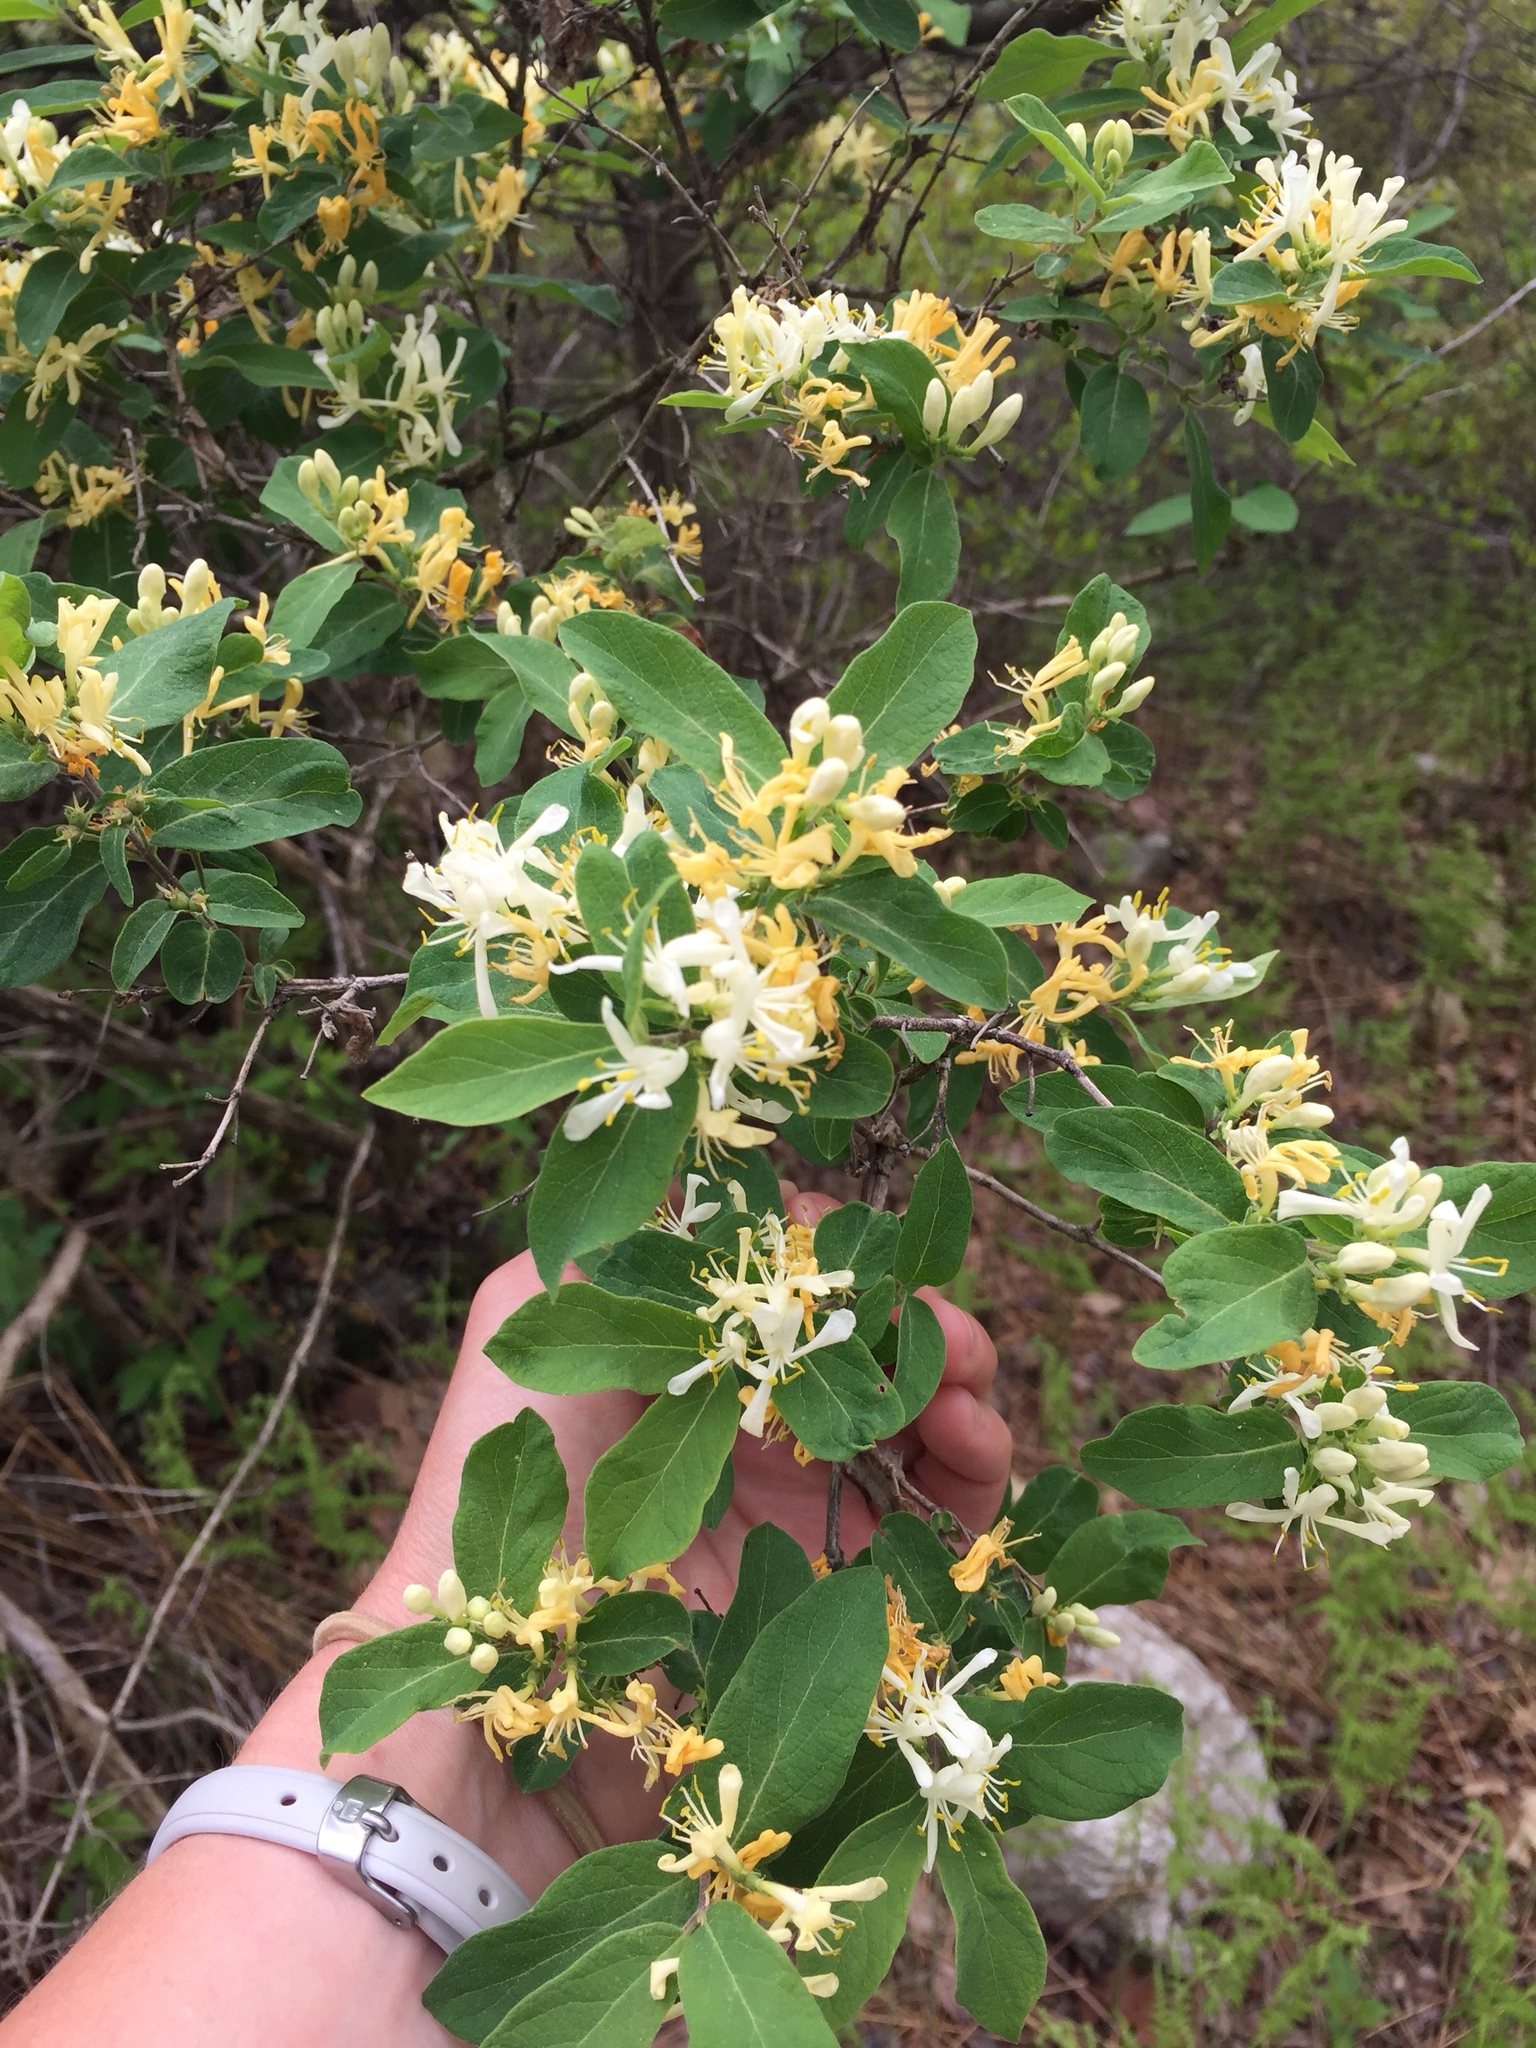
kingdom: Plantae
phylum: Tracheophyta
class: Magnoliopsida
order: Dipsacales
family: Caprifoliaceae
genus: Lonicera
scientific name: Lonicera morrowii
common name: Morrow's honeysuckle
